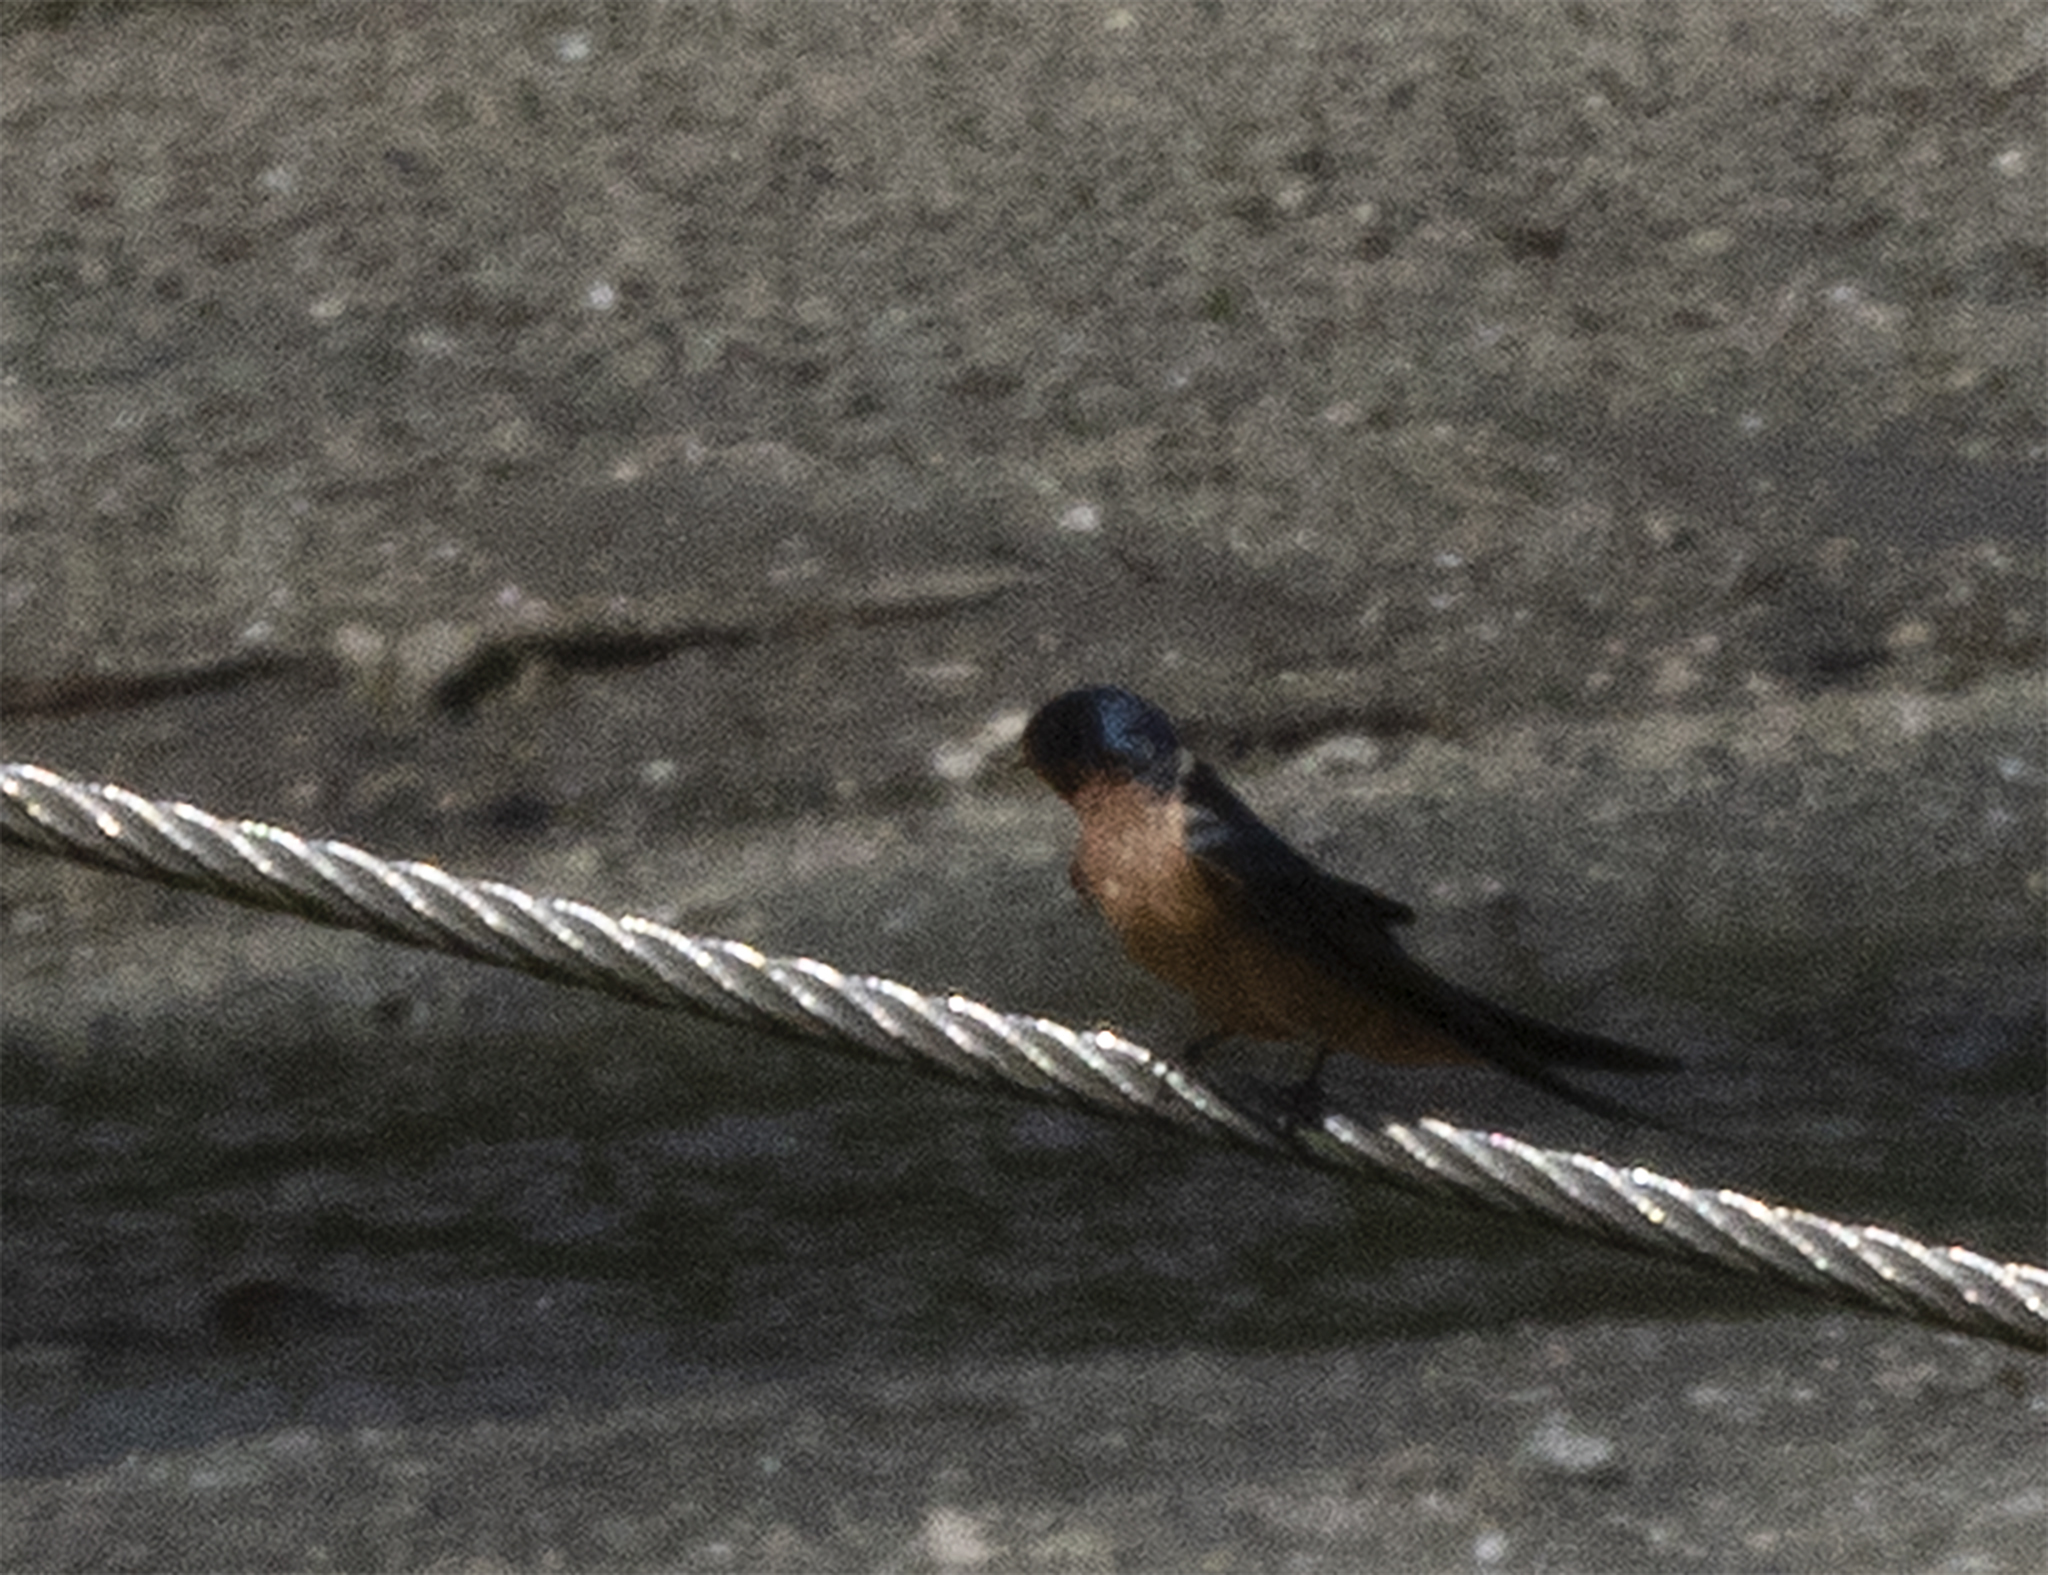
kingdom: Animalia
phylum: Chordata
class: Aves
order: Passeriformes
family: Hirundinidae
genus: Hirundo
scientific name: Hirundo rustica
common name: Barn swallow
